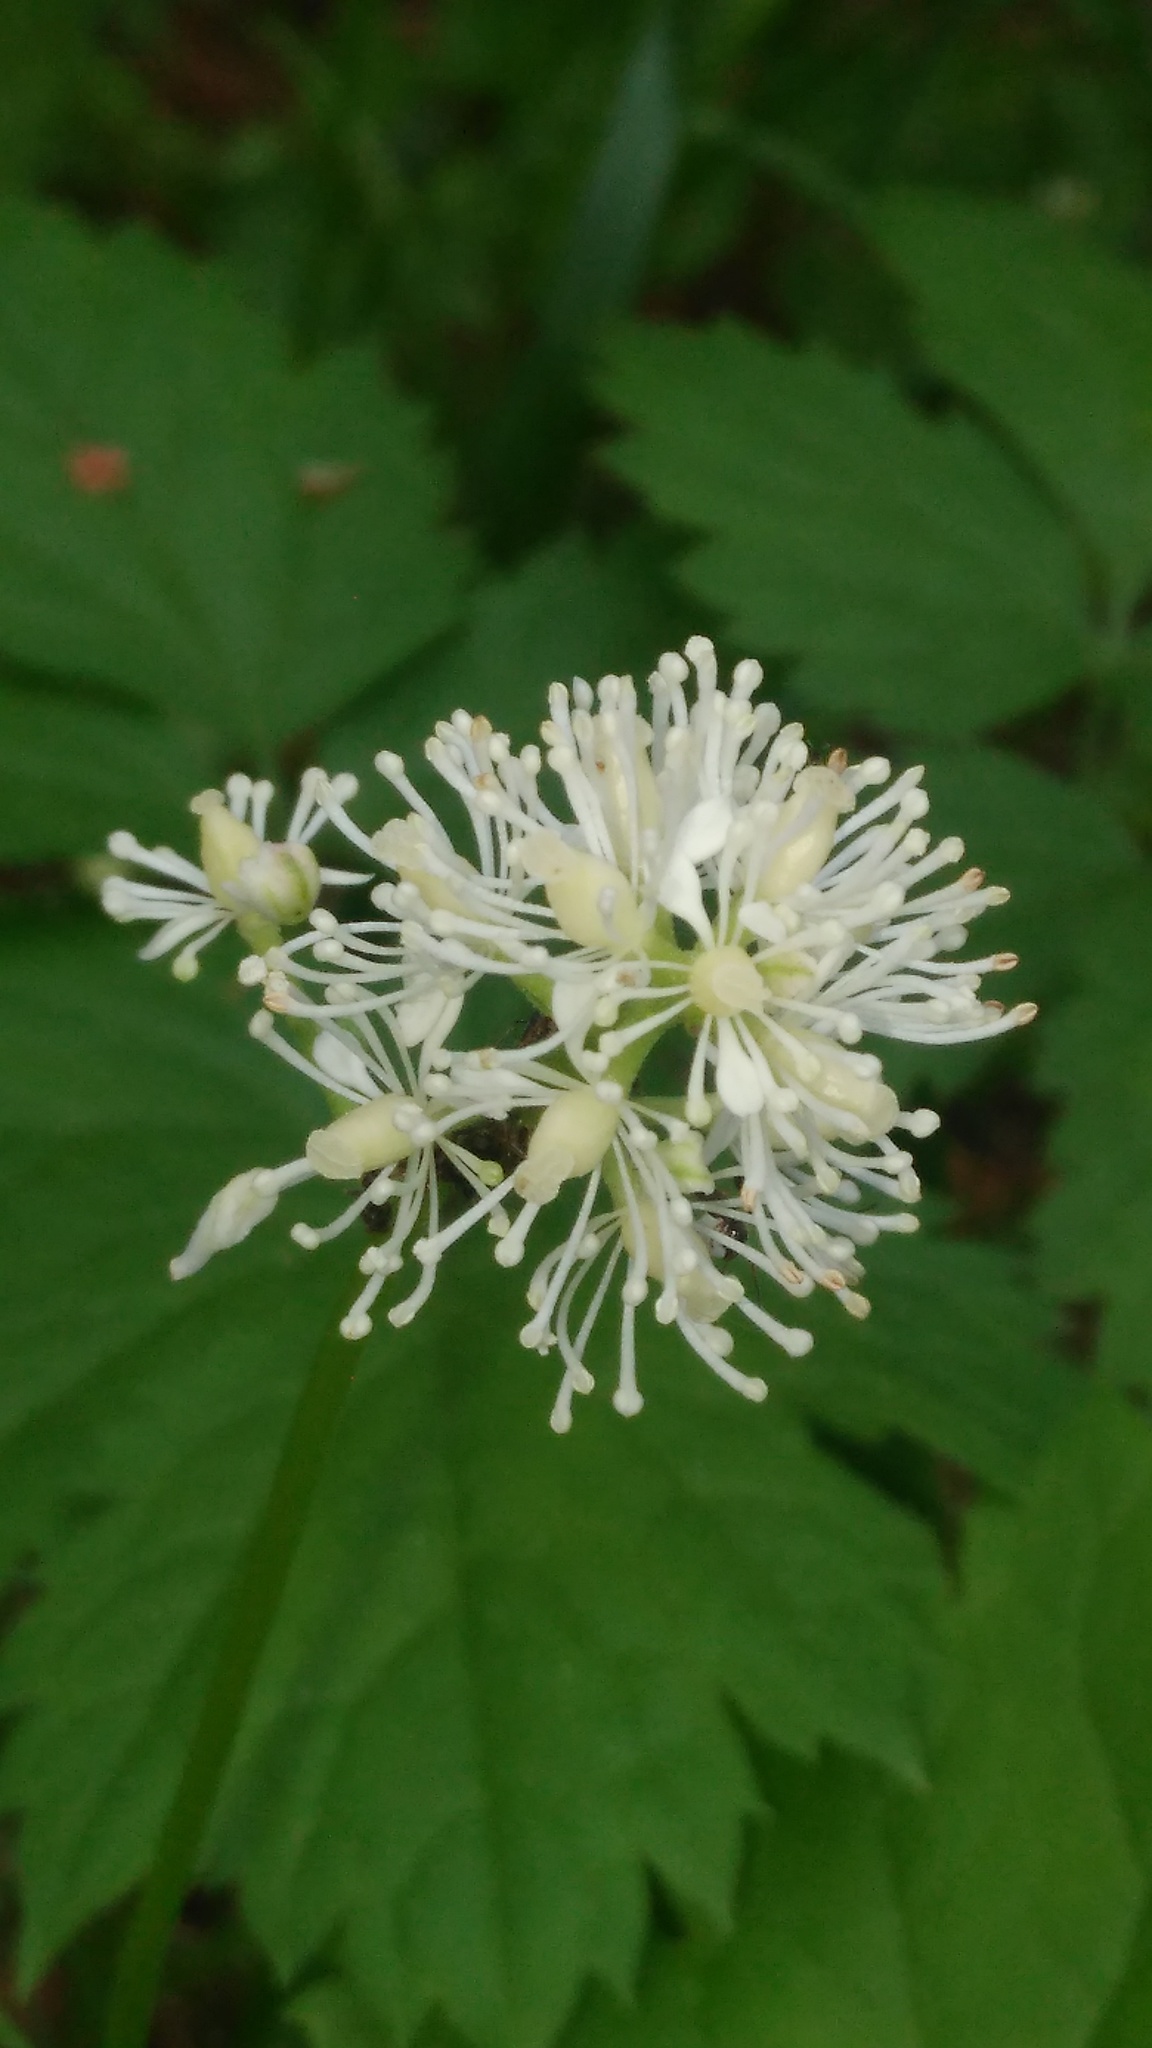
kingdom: Plantae
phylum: Tracheophyta
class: Magnoliopsida
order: Ranunculales
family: Ranunculaceae
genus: Actaea
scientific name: Actaea spicata
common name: Baneberry
